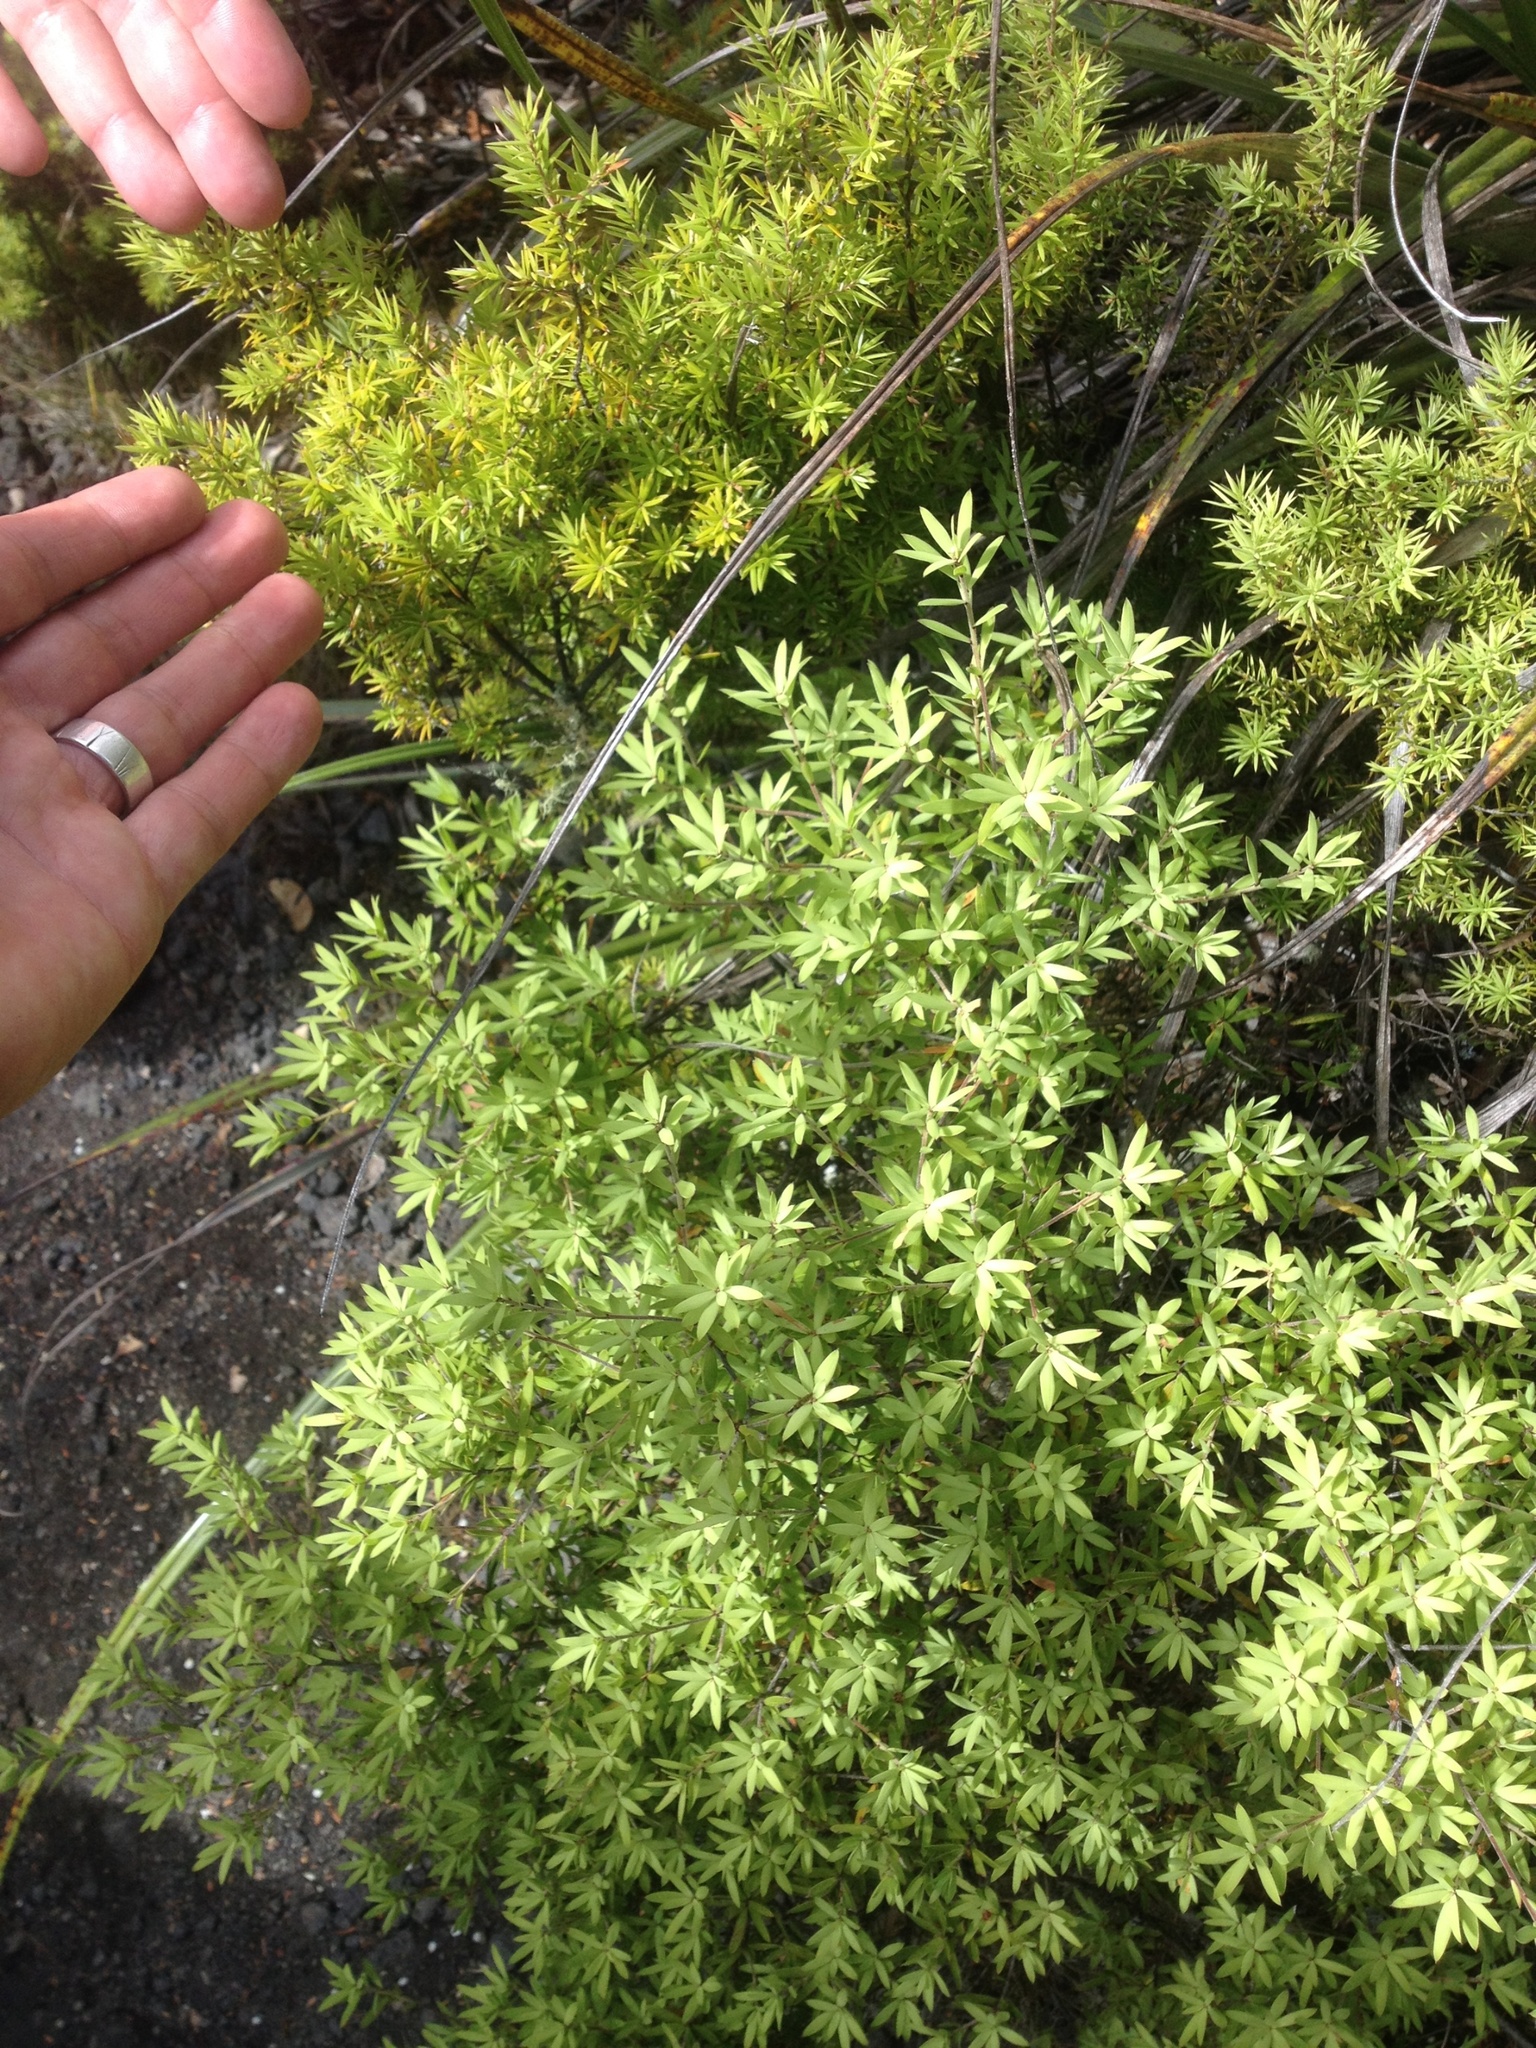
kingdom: Plantae
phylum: Tracheophyta
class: Magnoliopsida
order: Ericales
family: Ericaceae
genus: Leucopogon
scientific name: Leucopogon fasciculatus
